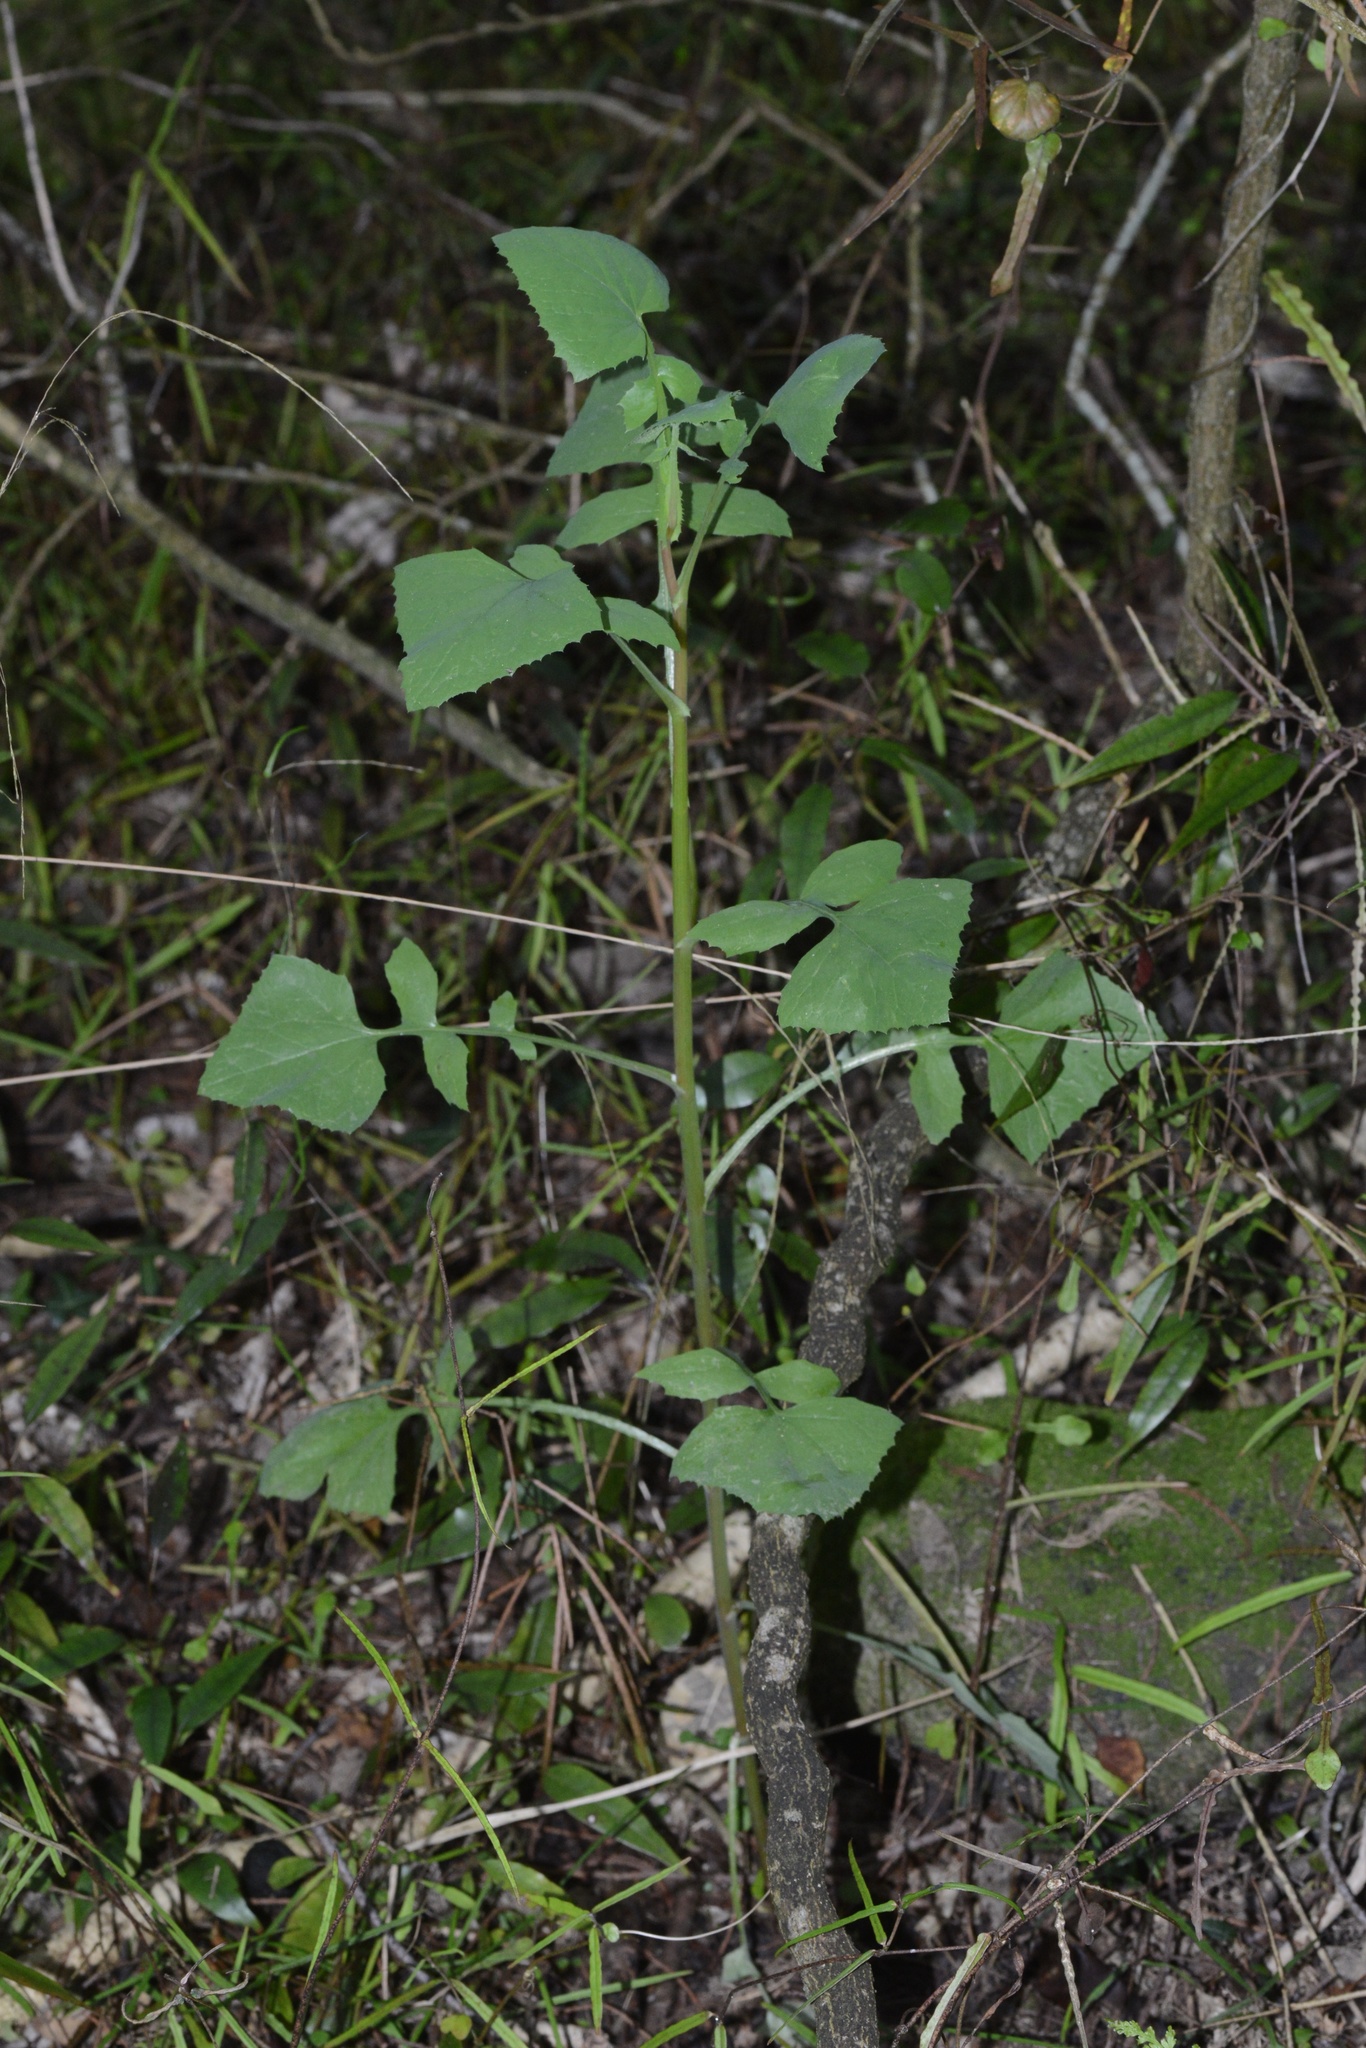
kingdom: Plantae
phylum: Tracheophyta
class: Magnoliopsida
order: Asterales
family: Asteraceae
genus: Sonchus
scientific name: Sonchus oleraceus
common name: Common sowthistle
